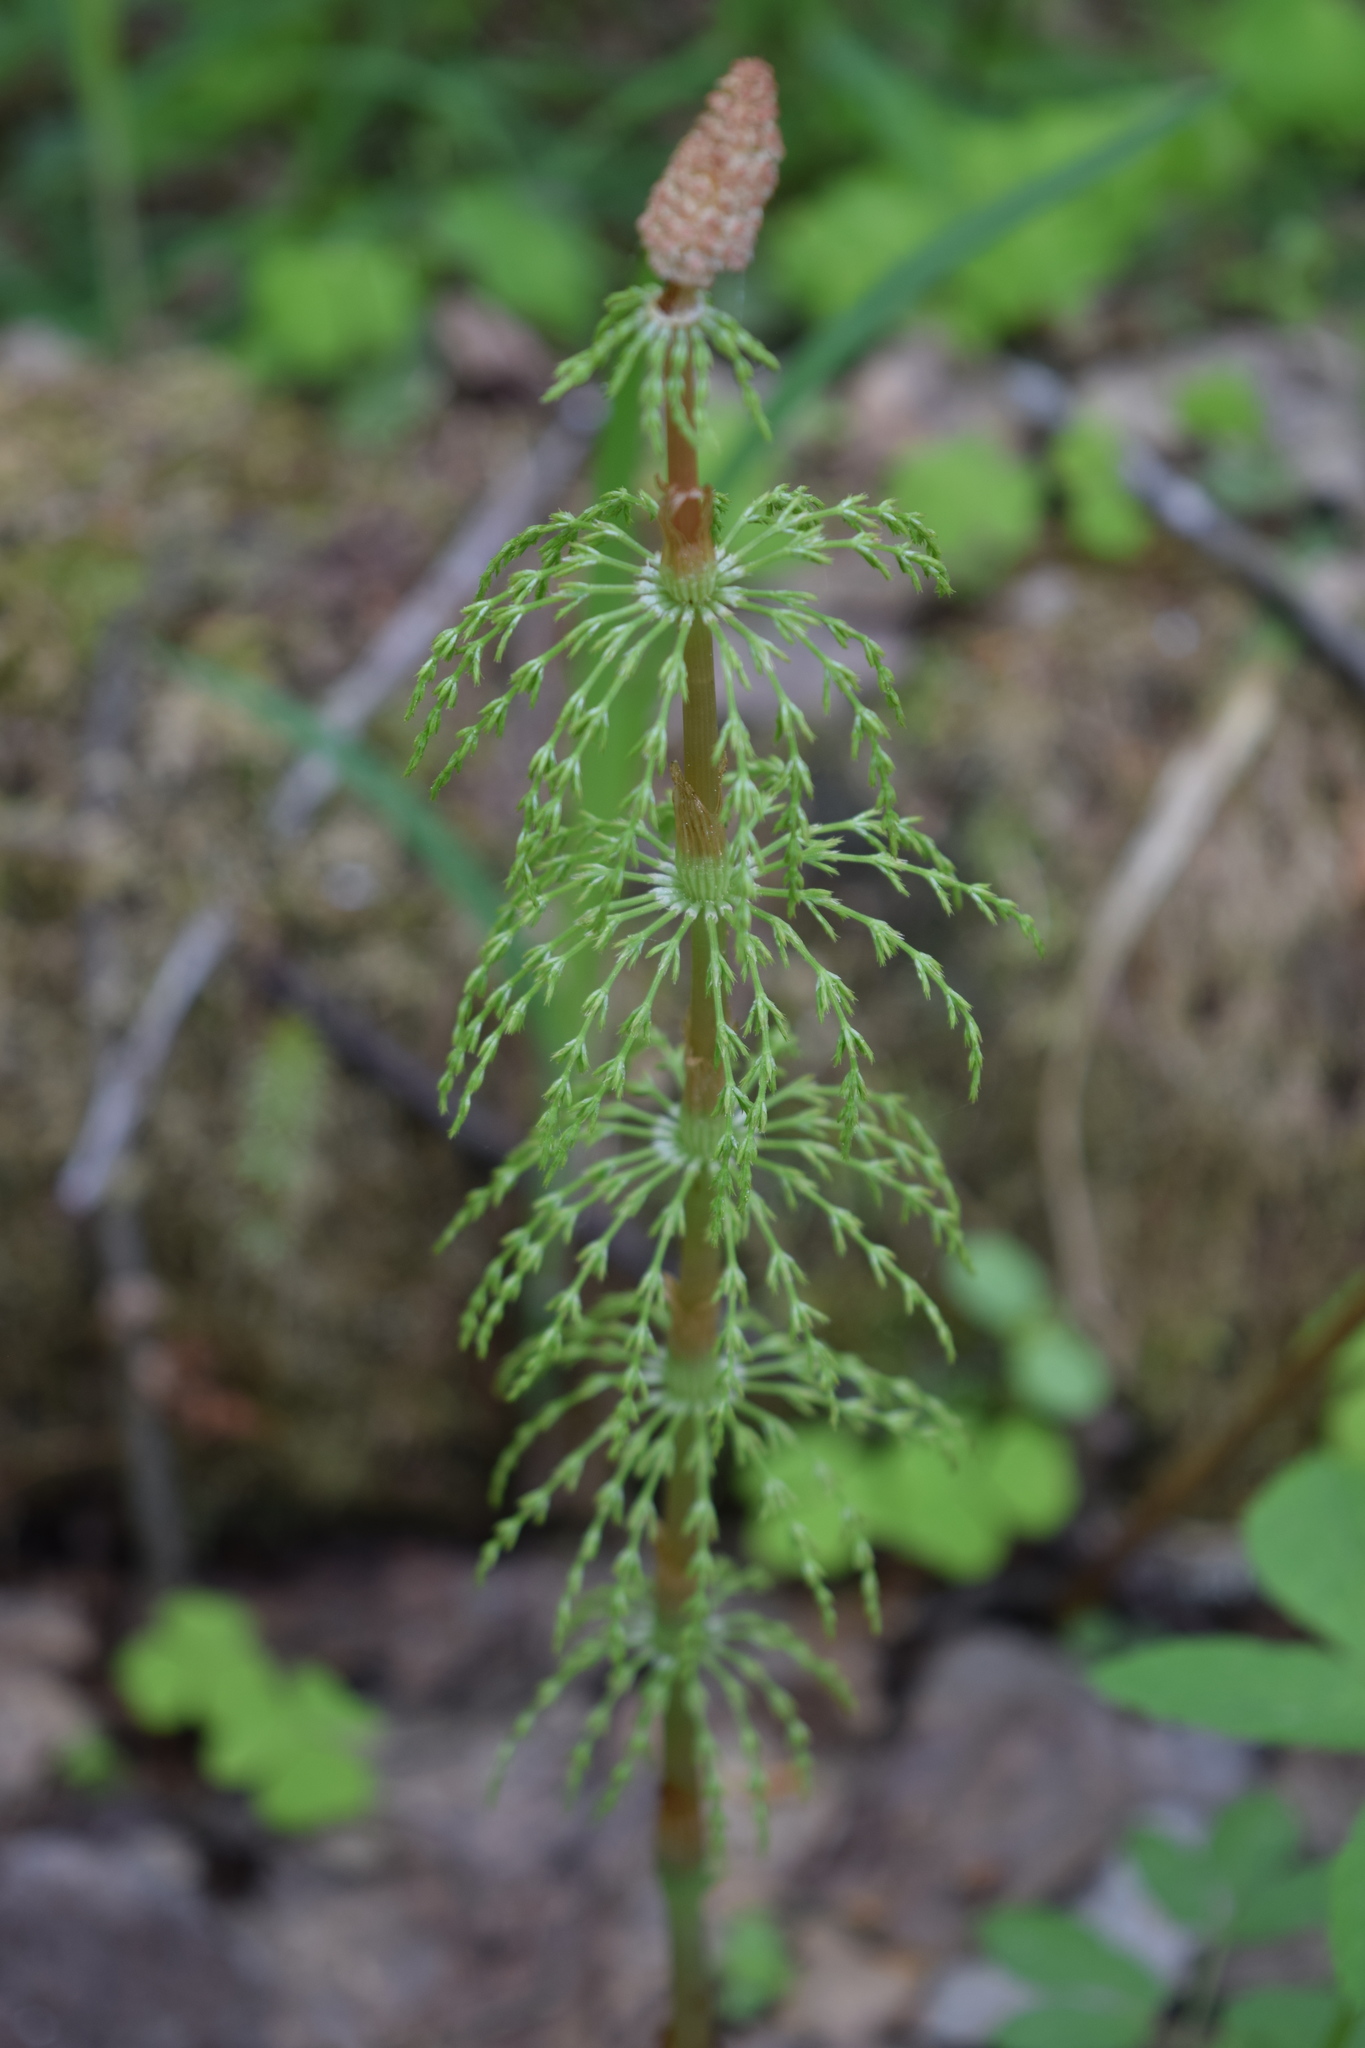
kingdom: Plantae
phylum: Tracheophyta
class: Polypodiopsida
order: Equisetales
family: Equisetaceae
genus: Equisetum
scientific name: Equisetum sylvaticum
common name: Wood horsetail
